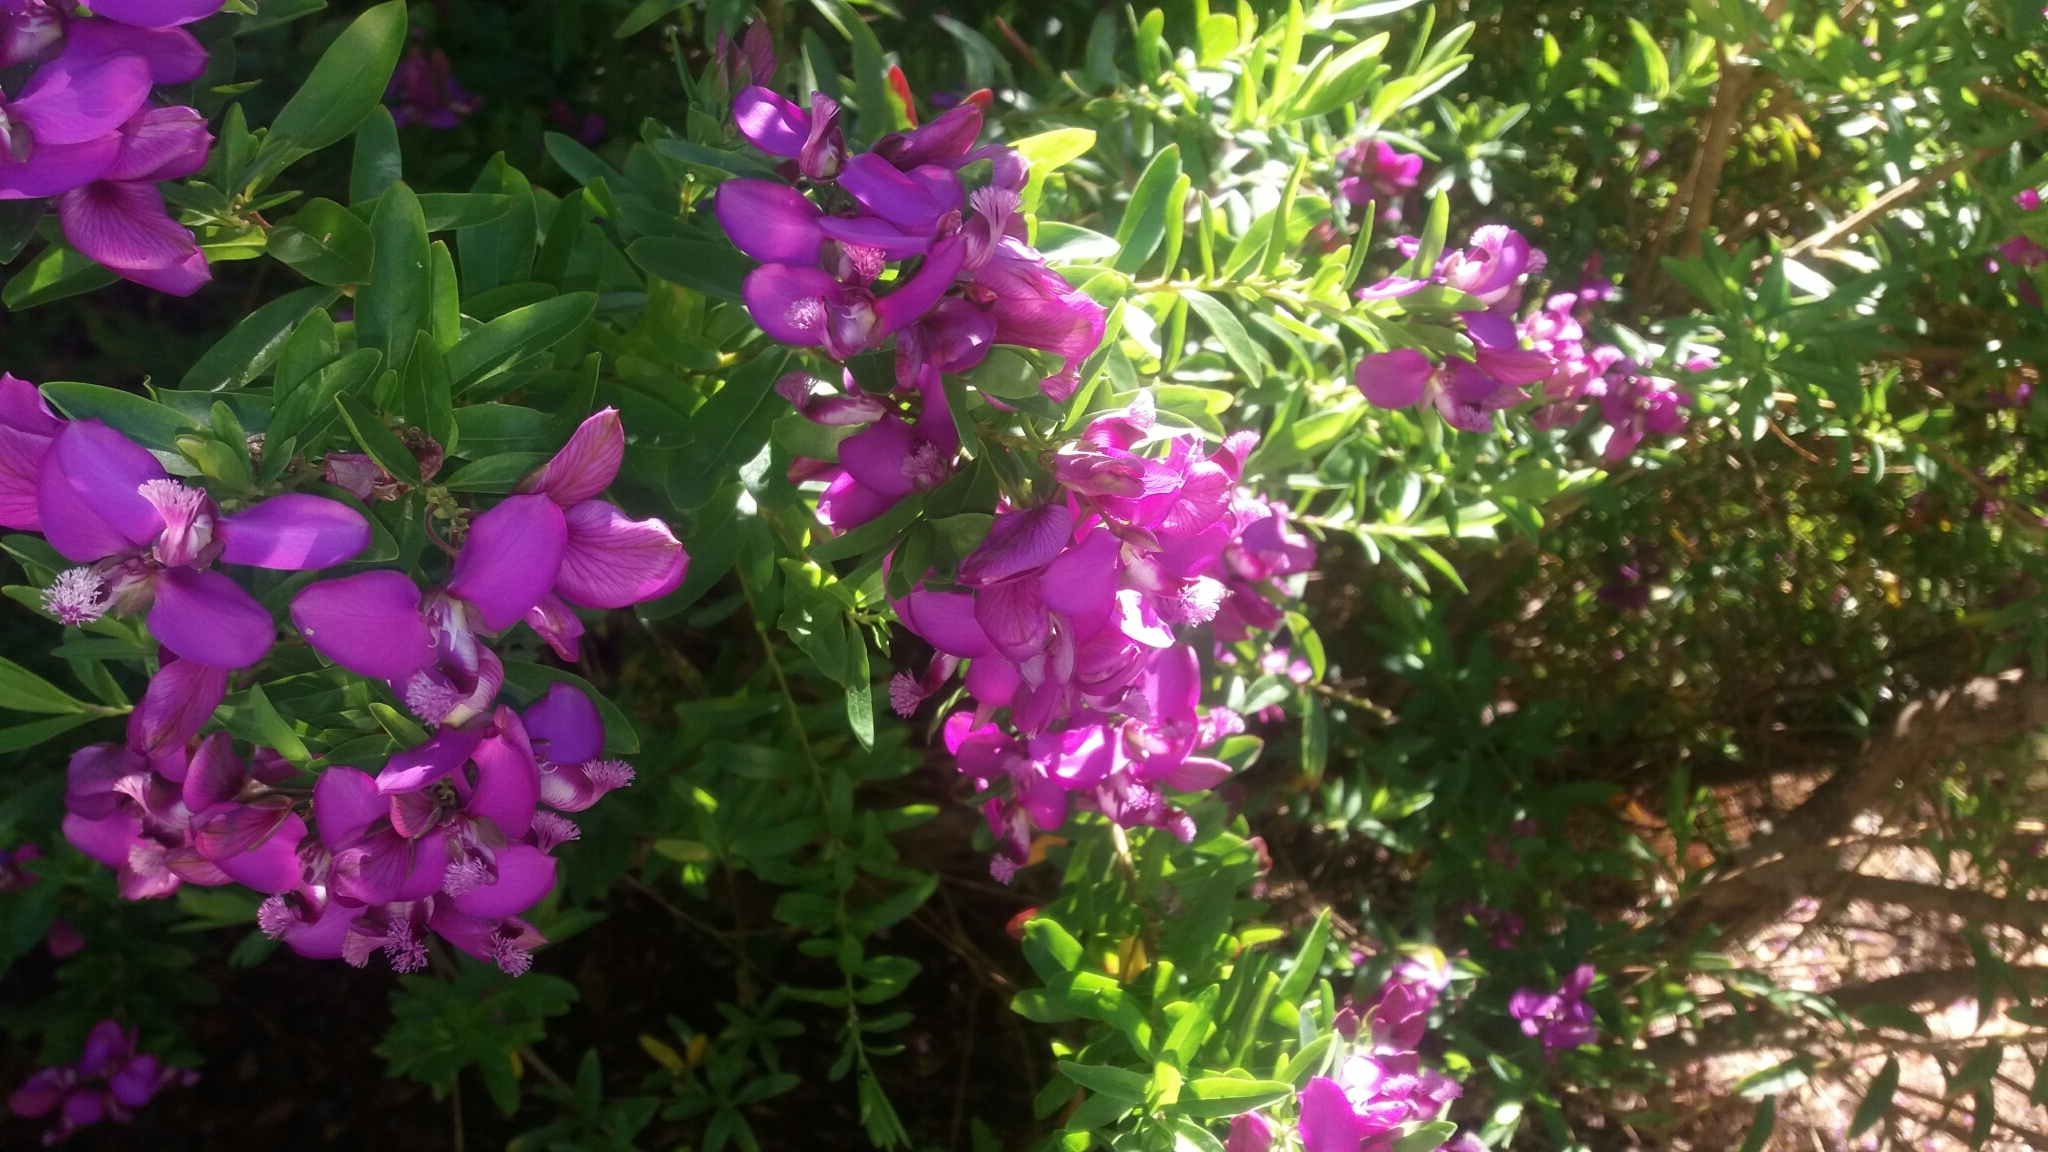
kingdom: Plantae
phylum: Tracheophyta
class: Magnoliopsida
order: Fabales
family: Polygalaceae
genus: Polygala
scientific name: Polygala myrtifolia
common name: Myrtle-leaf milkwort
